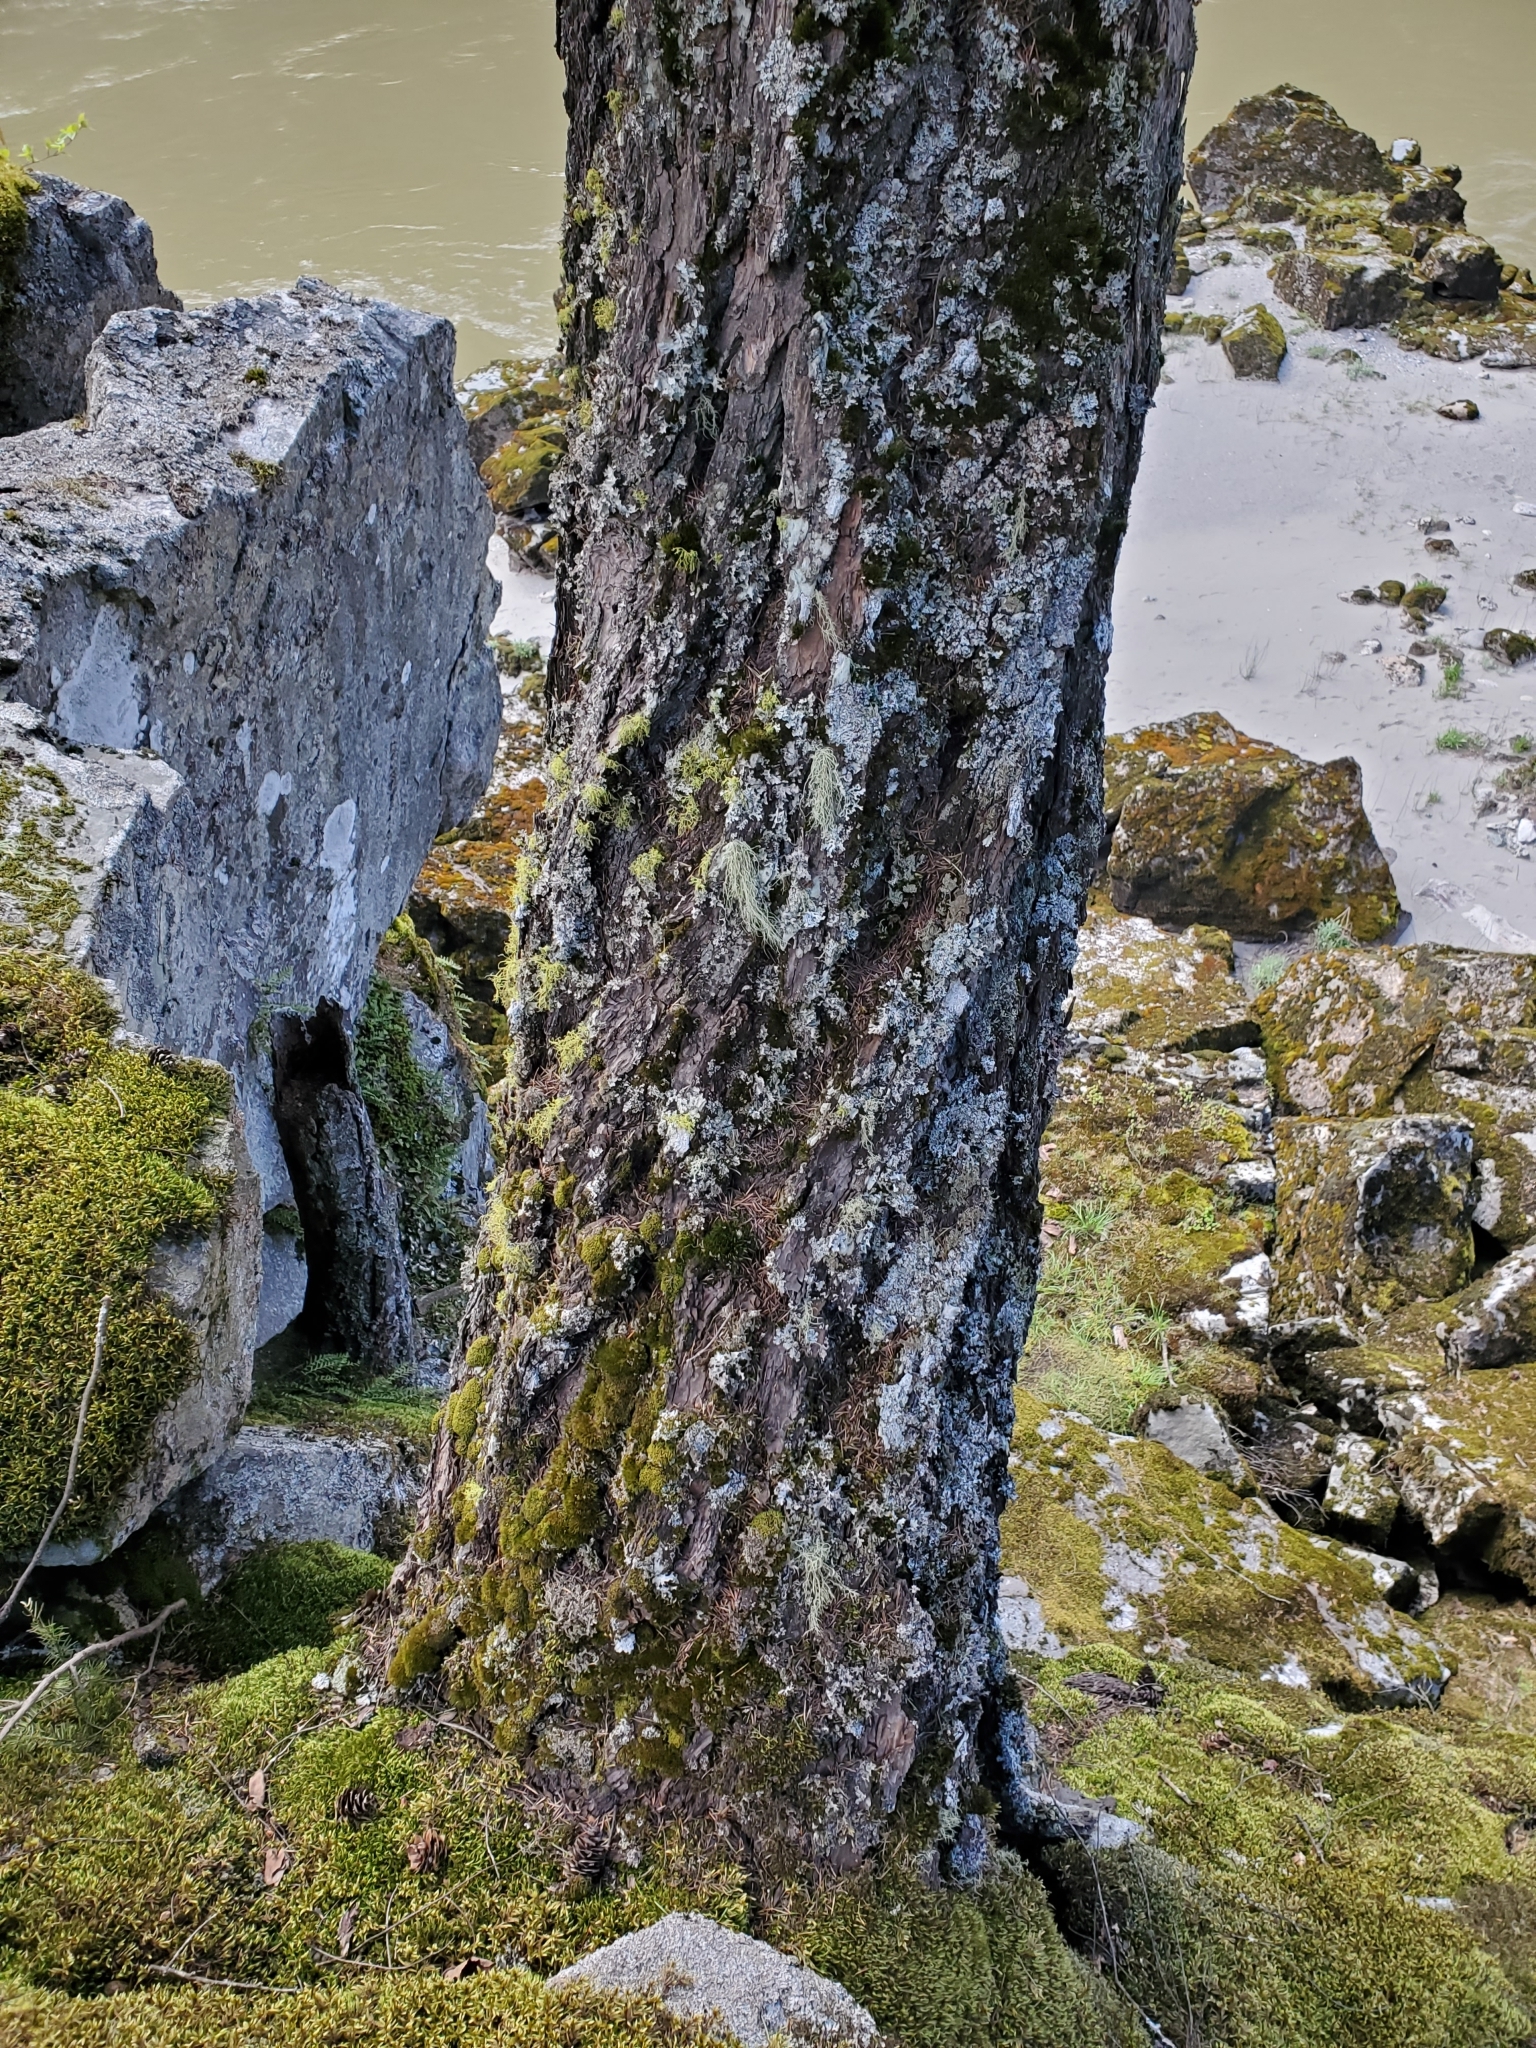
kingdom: Plantae
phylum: Tracheophyta
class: Pinopsida
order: Pinales
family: Pinaceae
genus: Pseudotsuga
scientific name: Pseudotsuga menziesii
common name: Douglas fir
